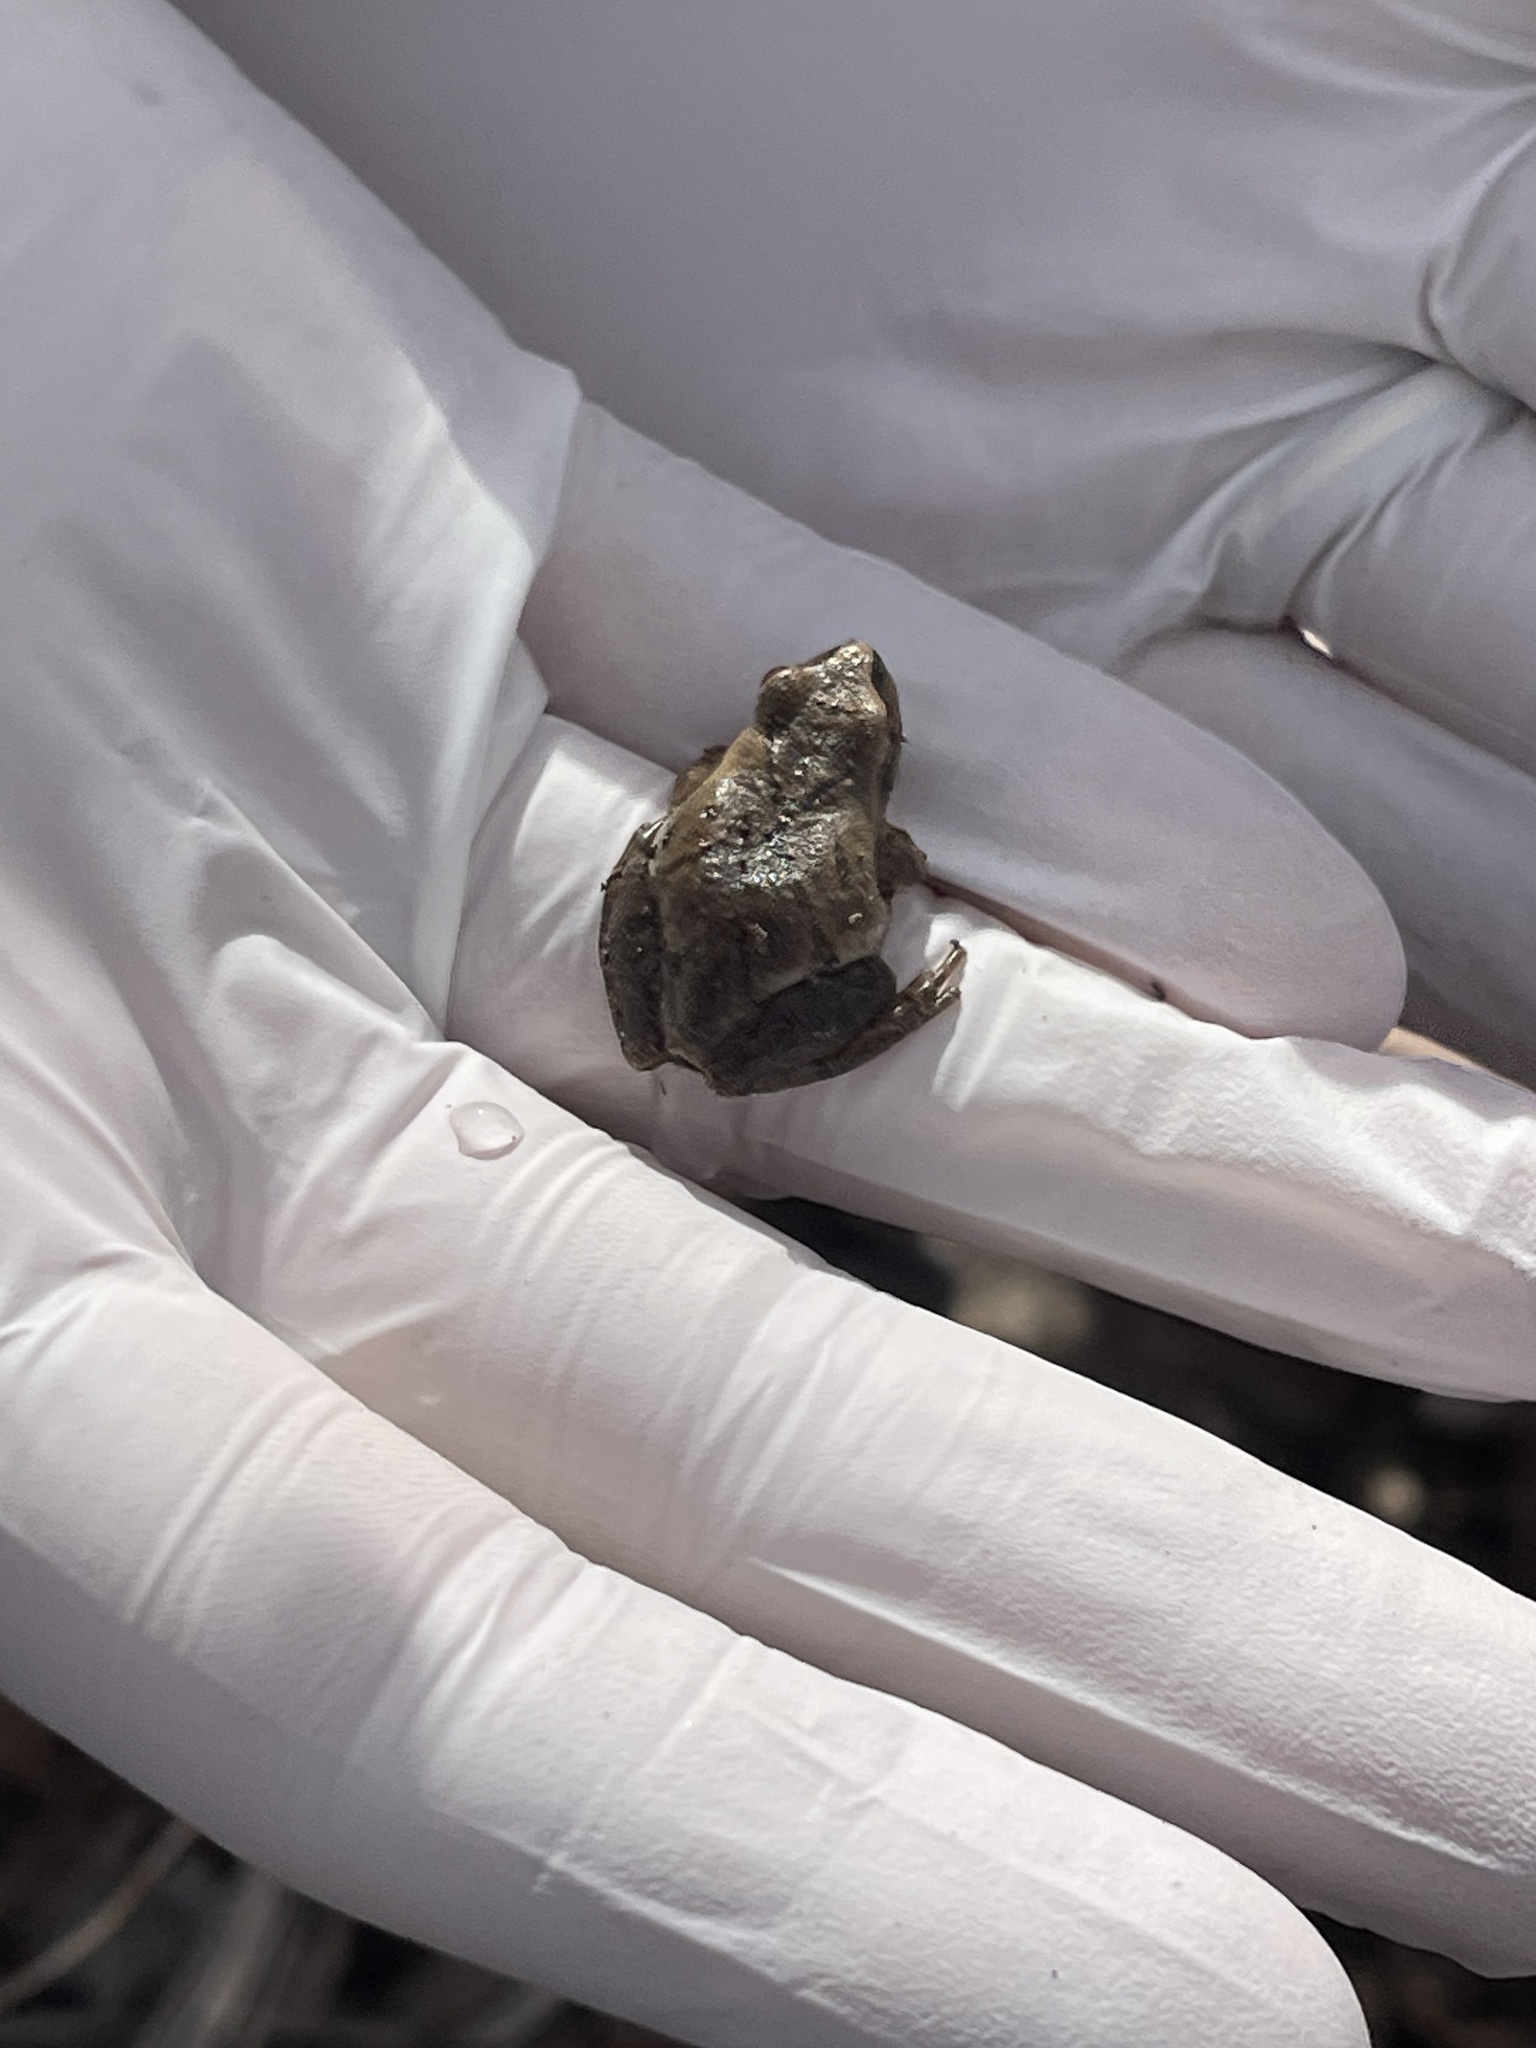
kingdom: Animalia
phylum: Chordata
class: Amphibia
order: Anura
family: Hylidae
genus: Pseudacris
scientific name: Pseudacris crucifer
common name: Spring peeper
